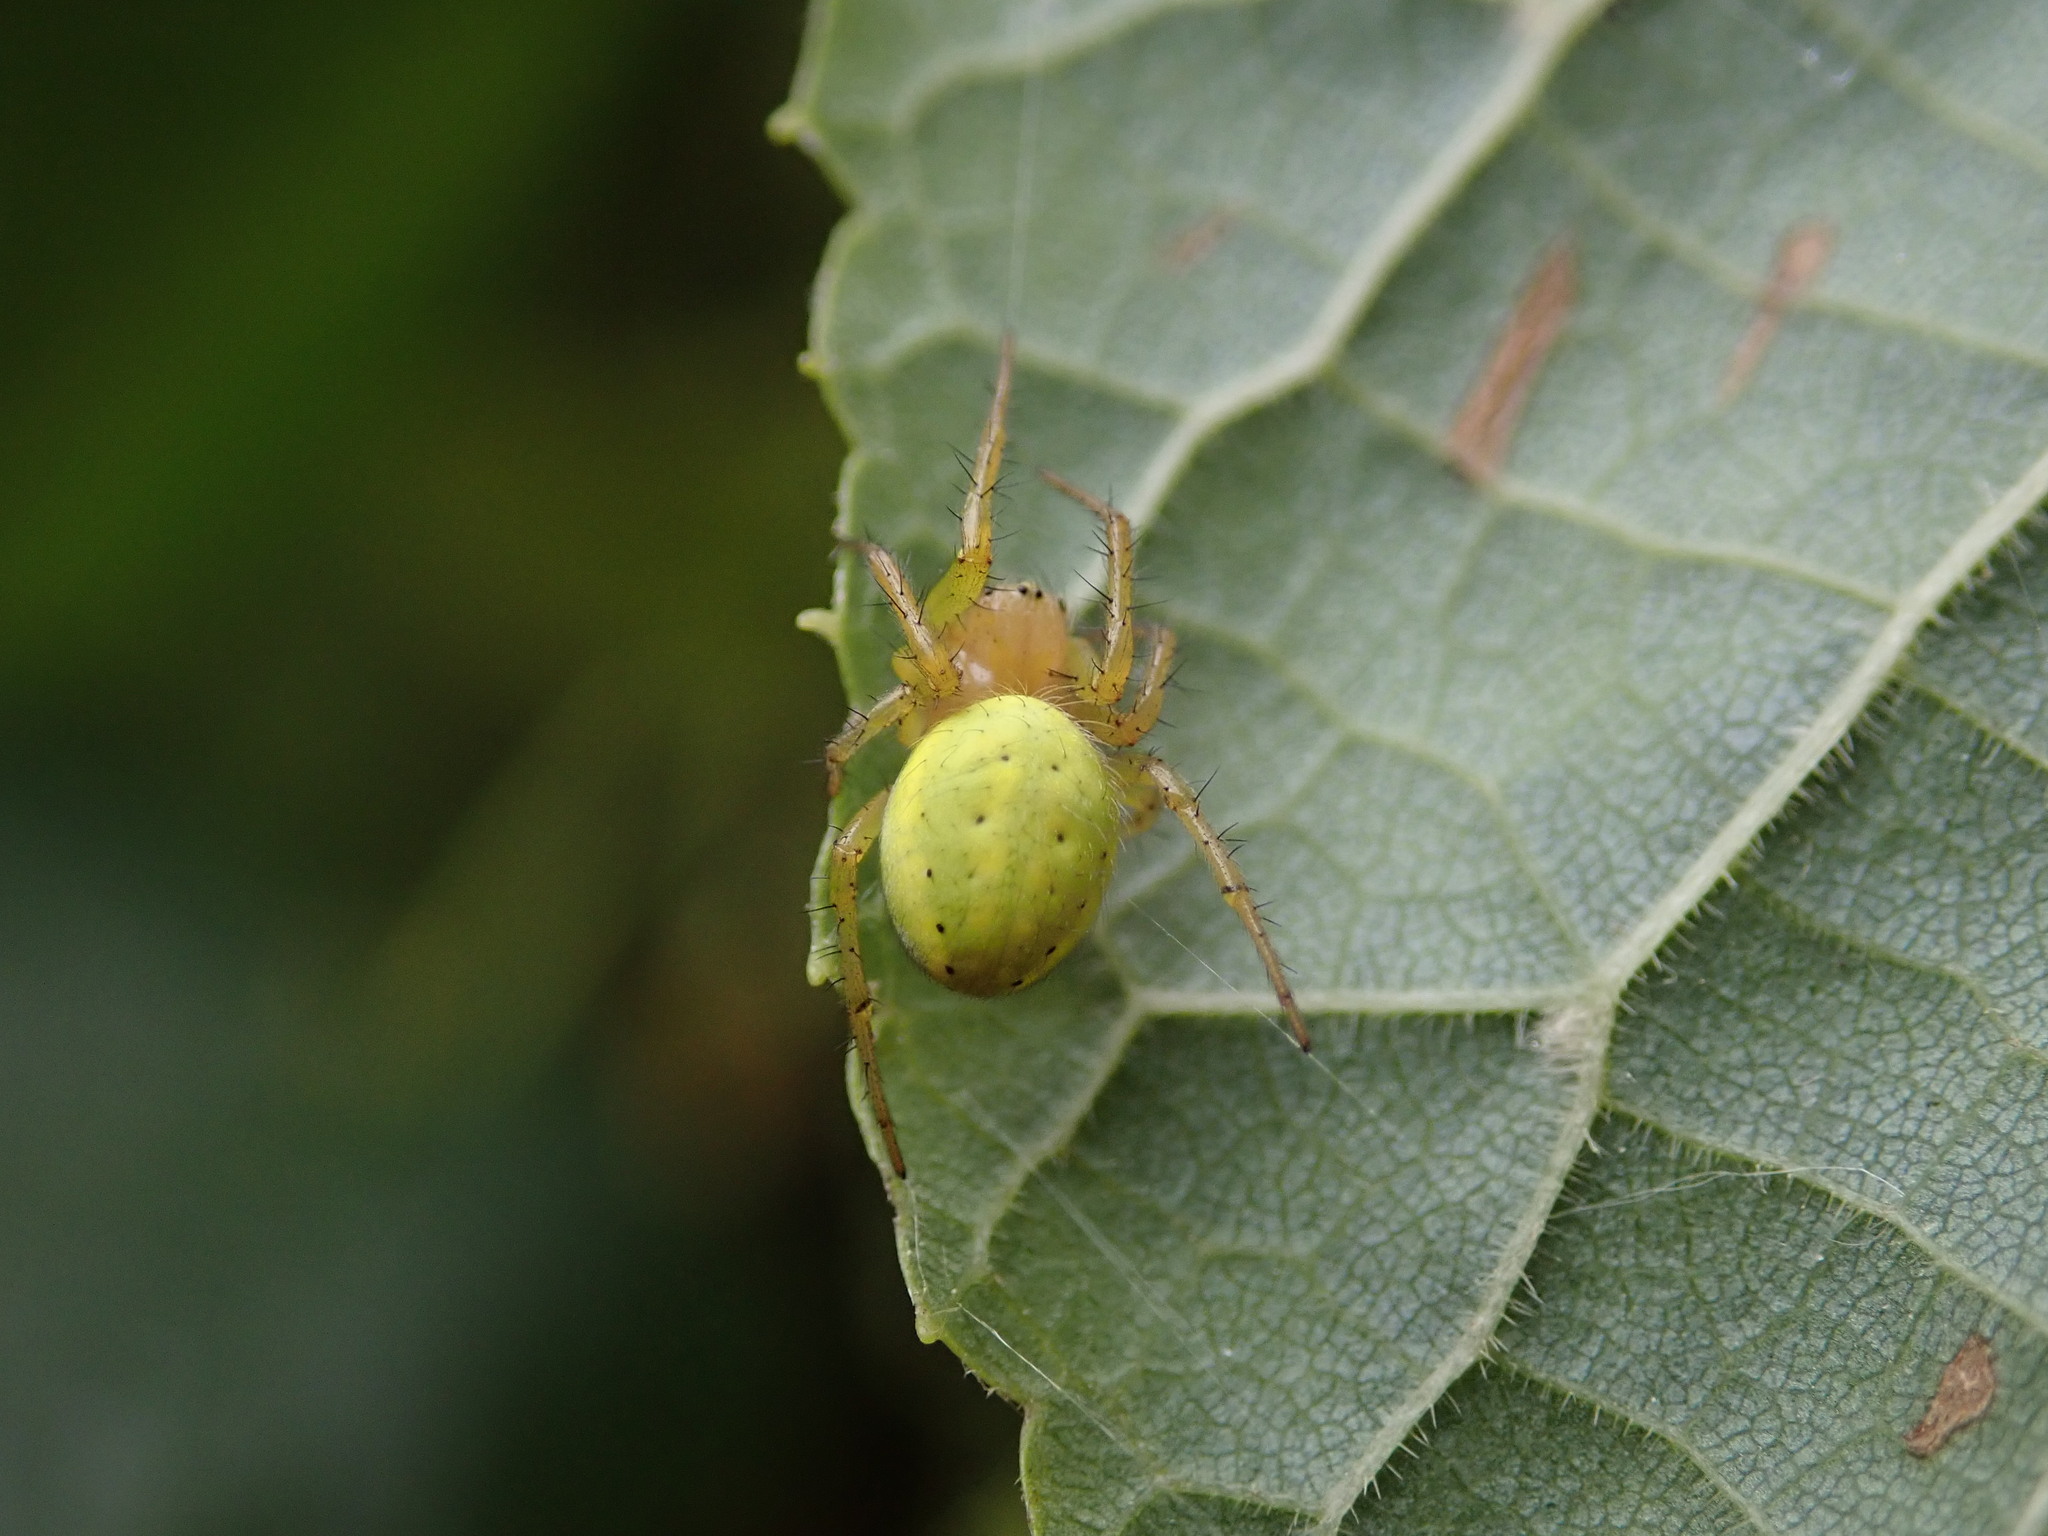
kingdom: Animalia
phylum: Arthropoda
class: Arachnida
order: Araneae
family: Araneidae
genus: Araniella
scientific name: Araniella
